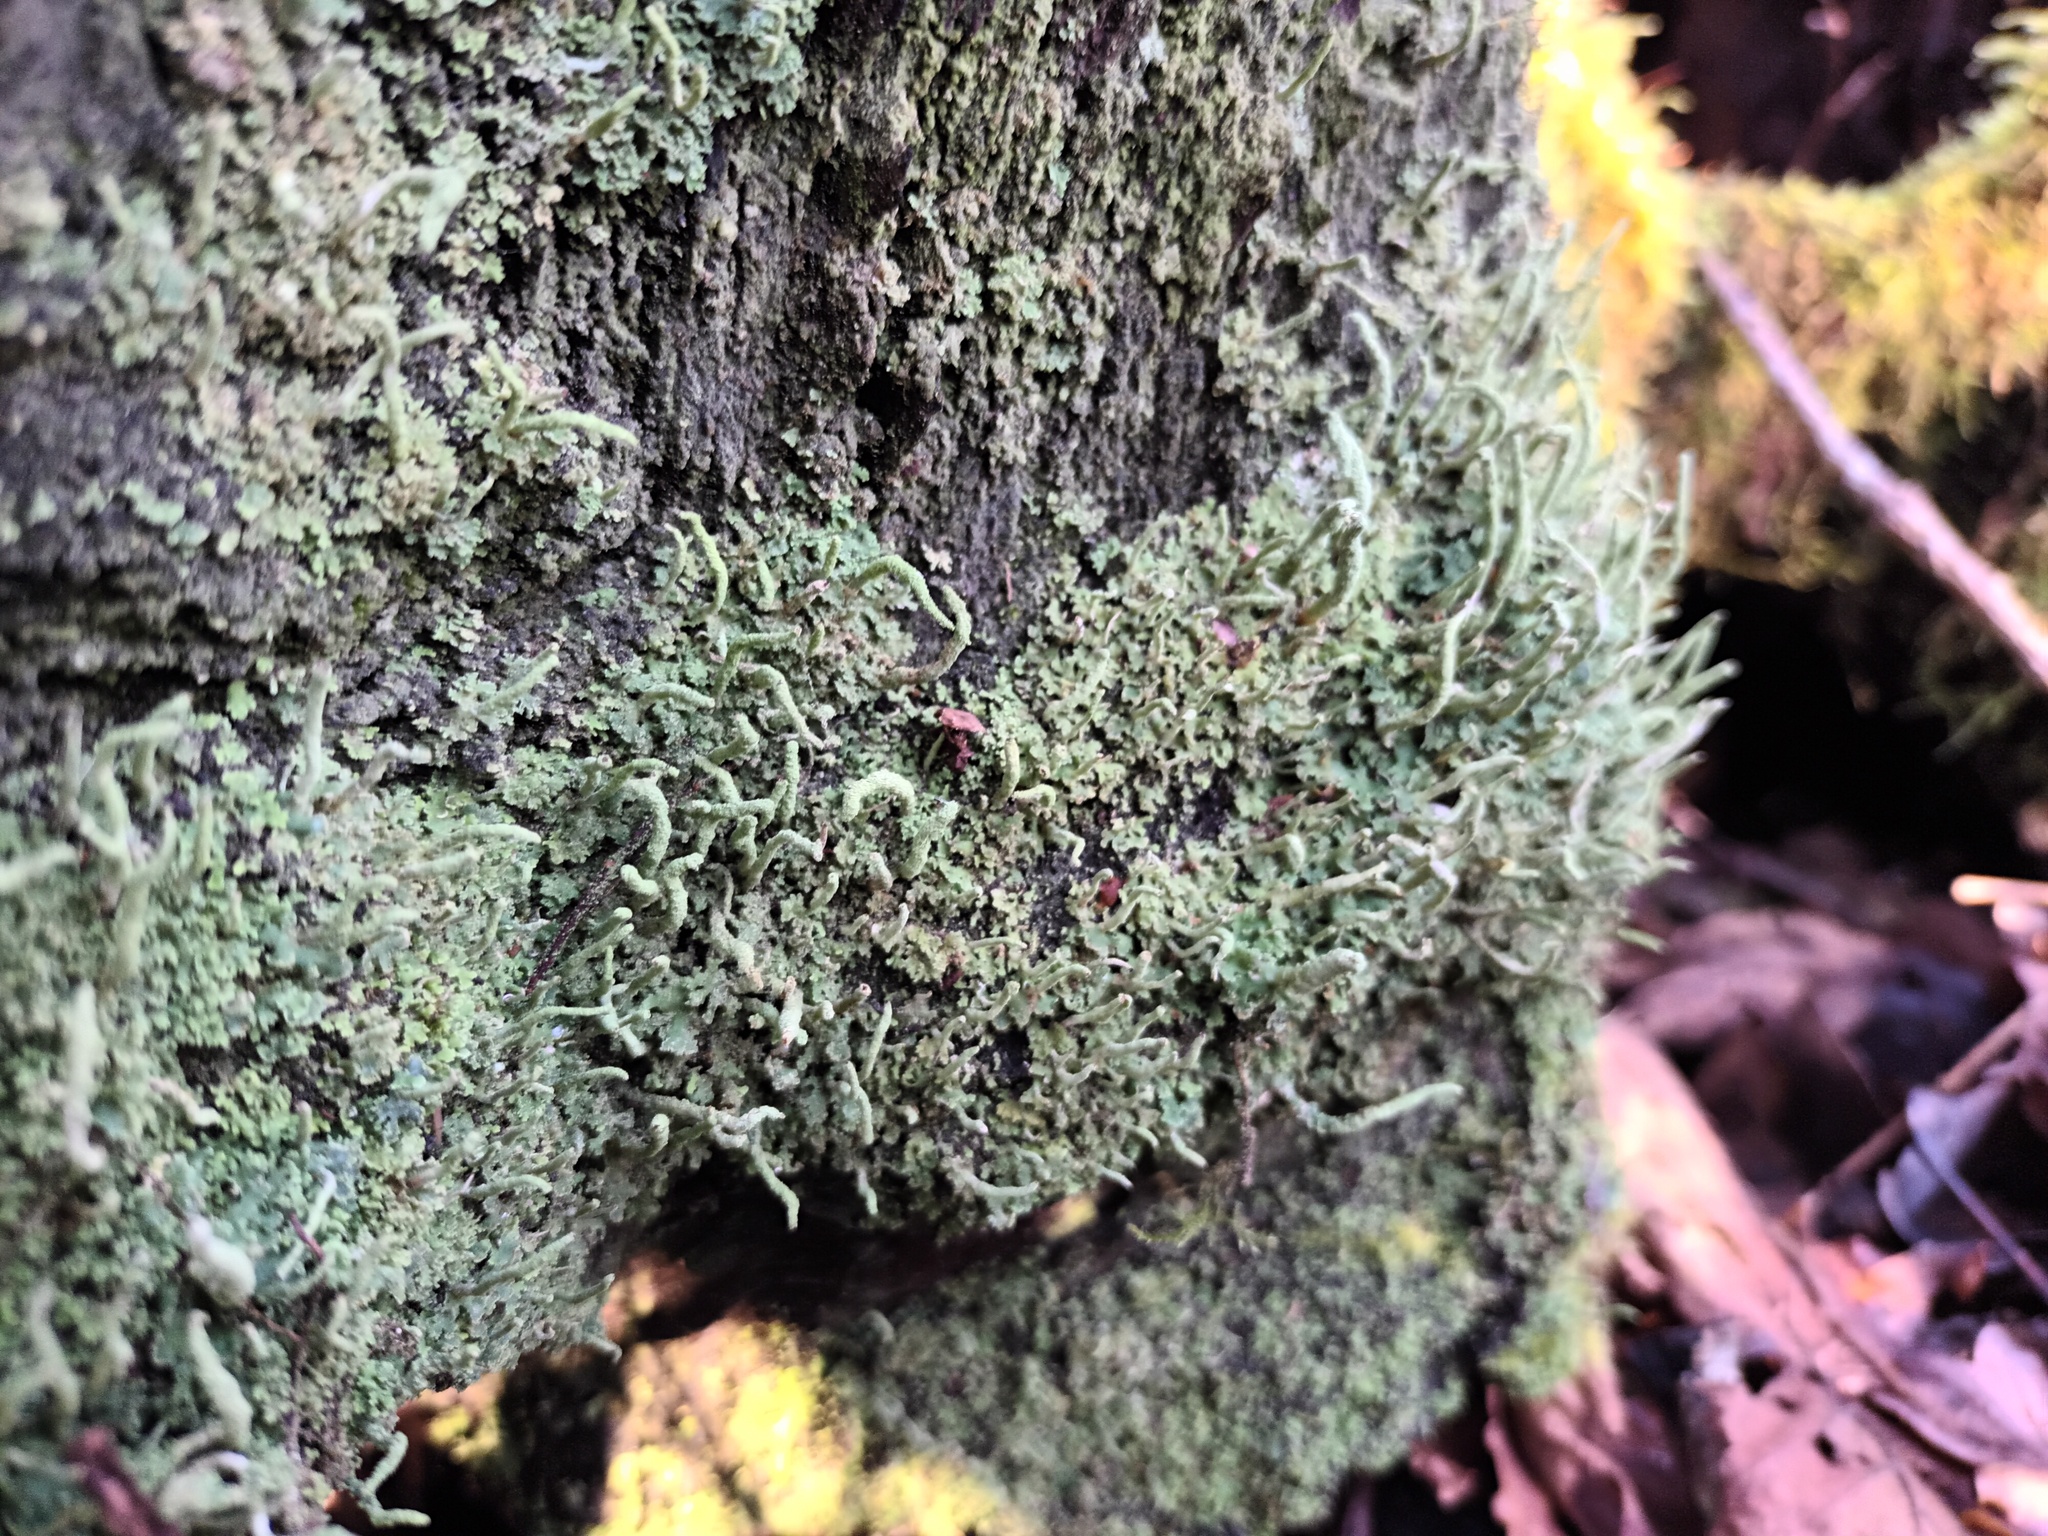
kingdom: Fungi
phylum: Ascomycota
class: Lecanoromycetes
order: Lecanorales
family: Cladoniaceae
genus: Cladonia
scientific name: Cladonia coniocraea
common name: Common powderhorn
